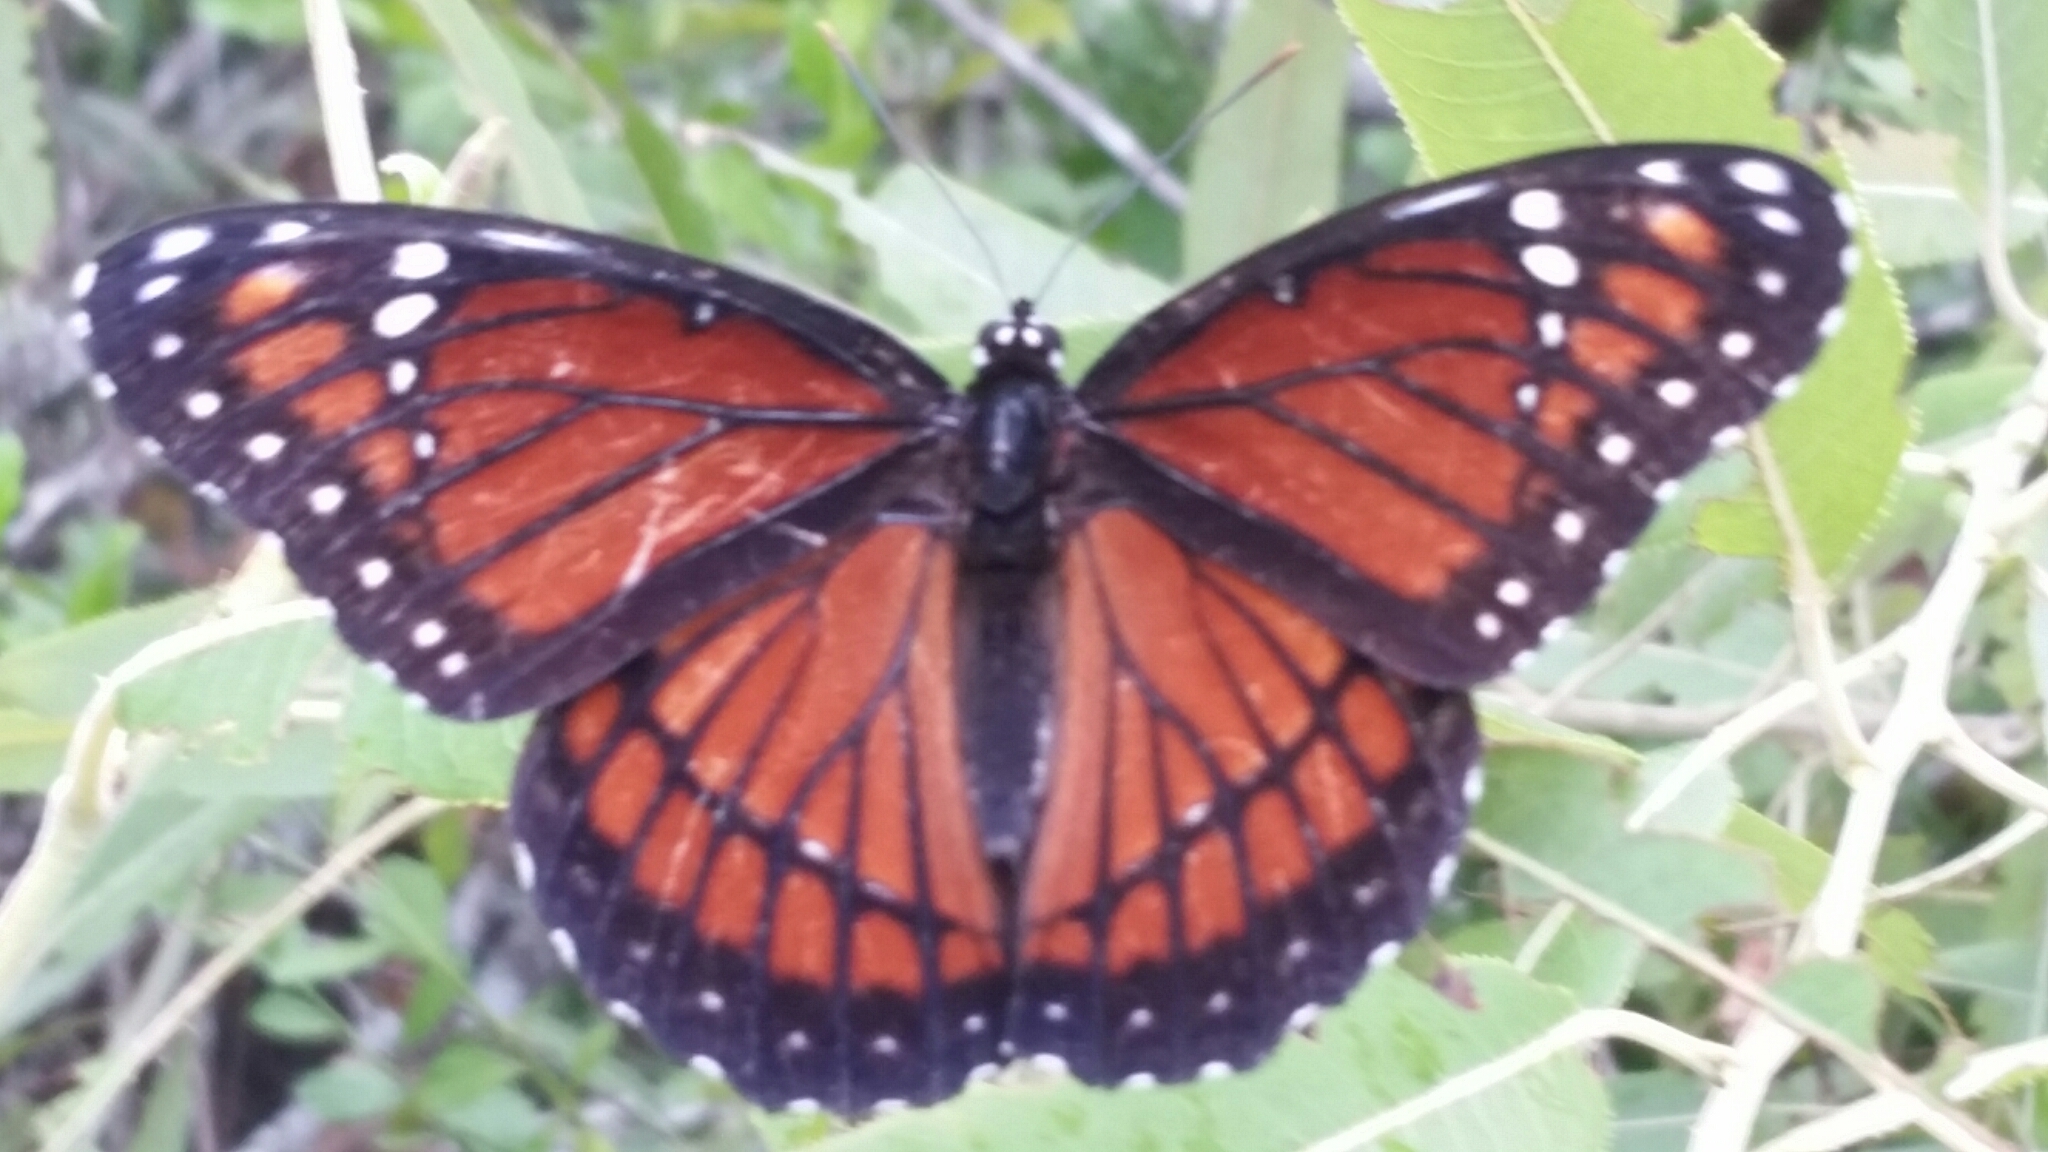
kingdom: Animalia
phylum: Arthropoda
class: Insecta
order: Lepidoptera
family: Nymphalidae
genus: Limenitis
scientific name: Limenitis archippus
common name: Viceroy
